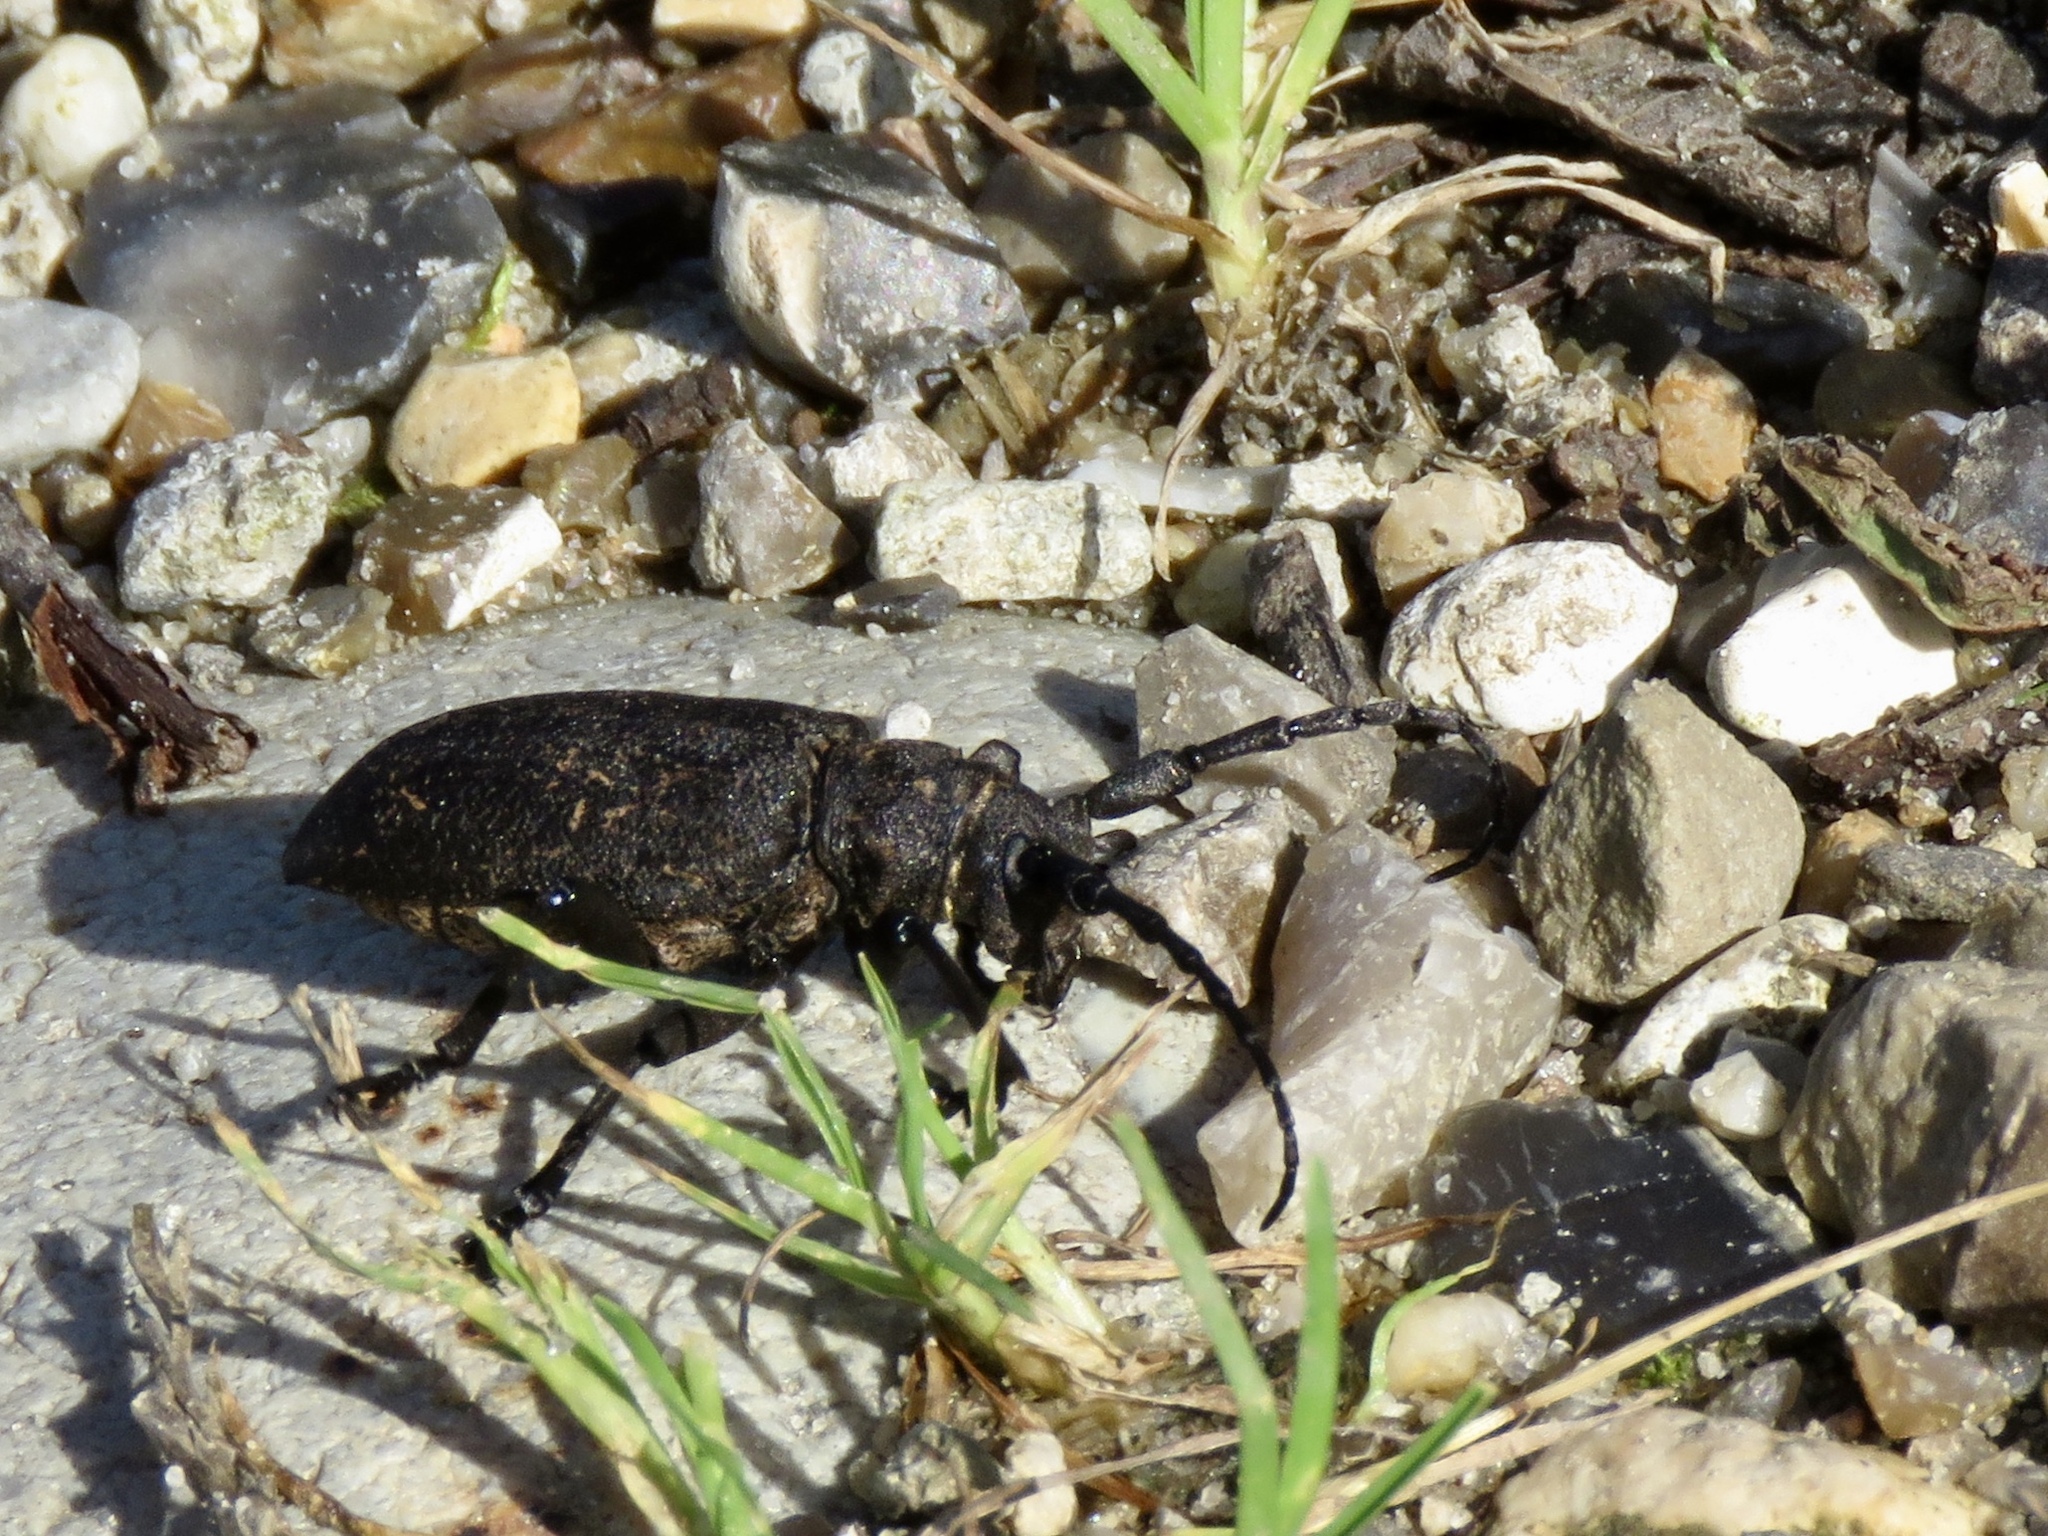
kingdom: Animalia
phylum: Arthropoda
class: Insecta
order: Coleoptera
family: Cerambycidae
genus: Lamia
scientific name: Lamia textor
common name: Weaver beetle
